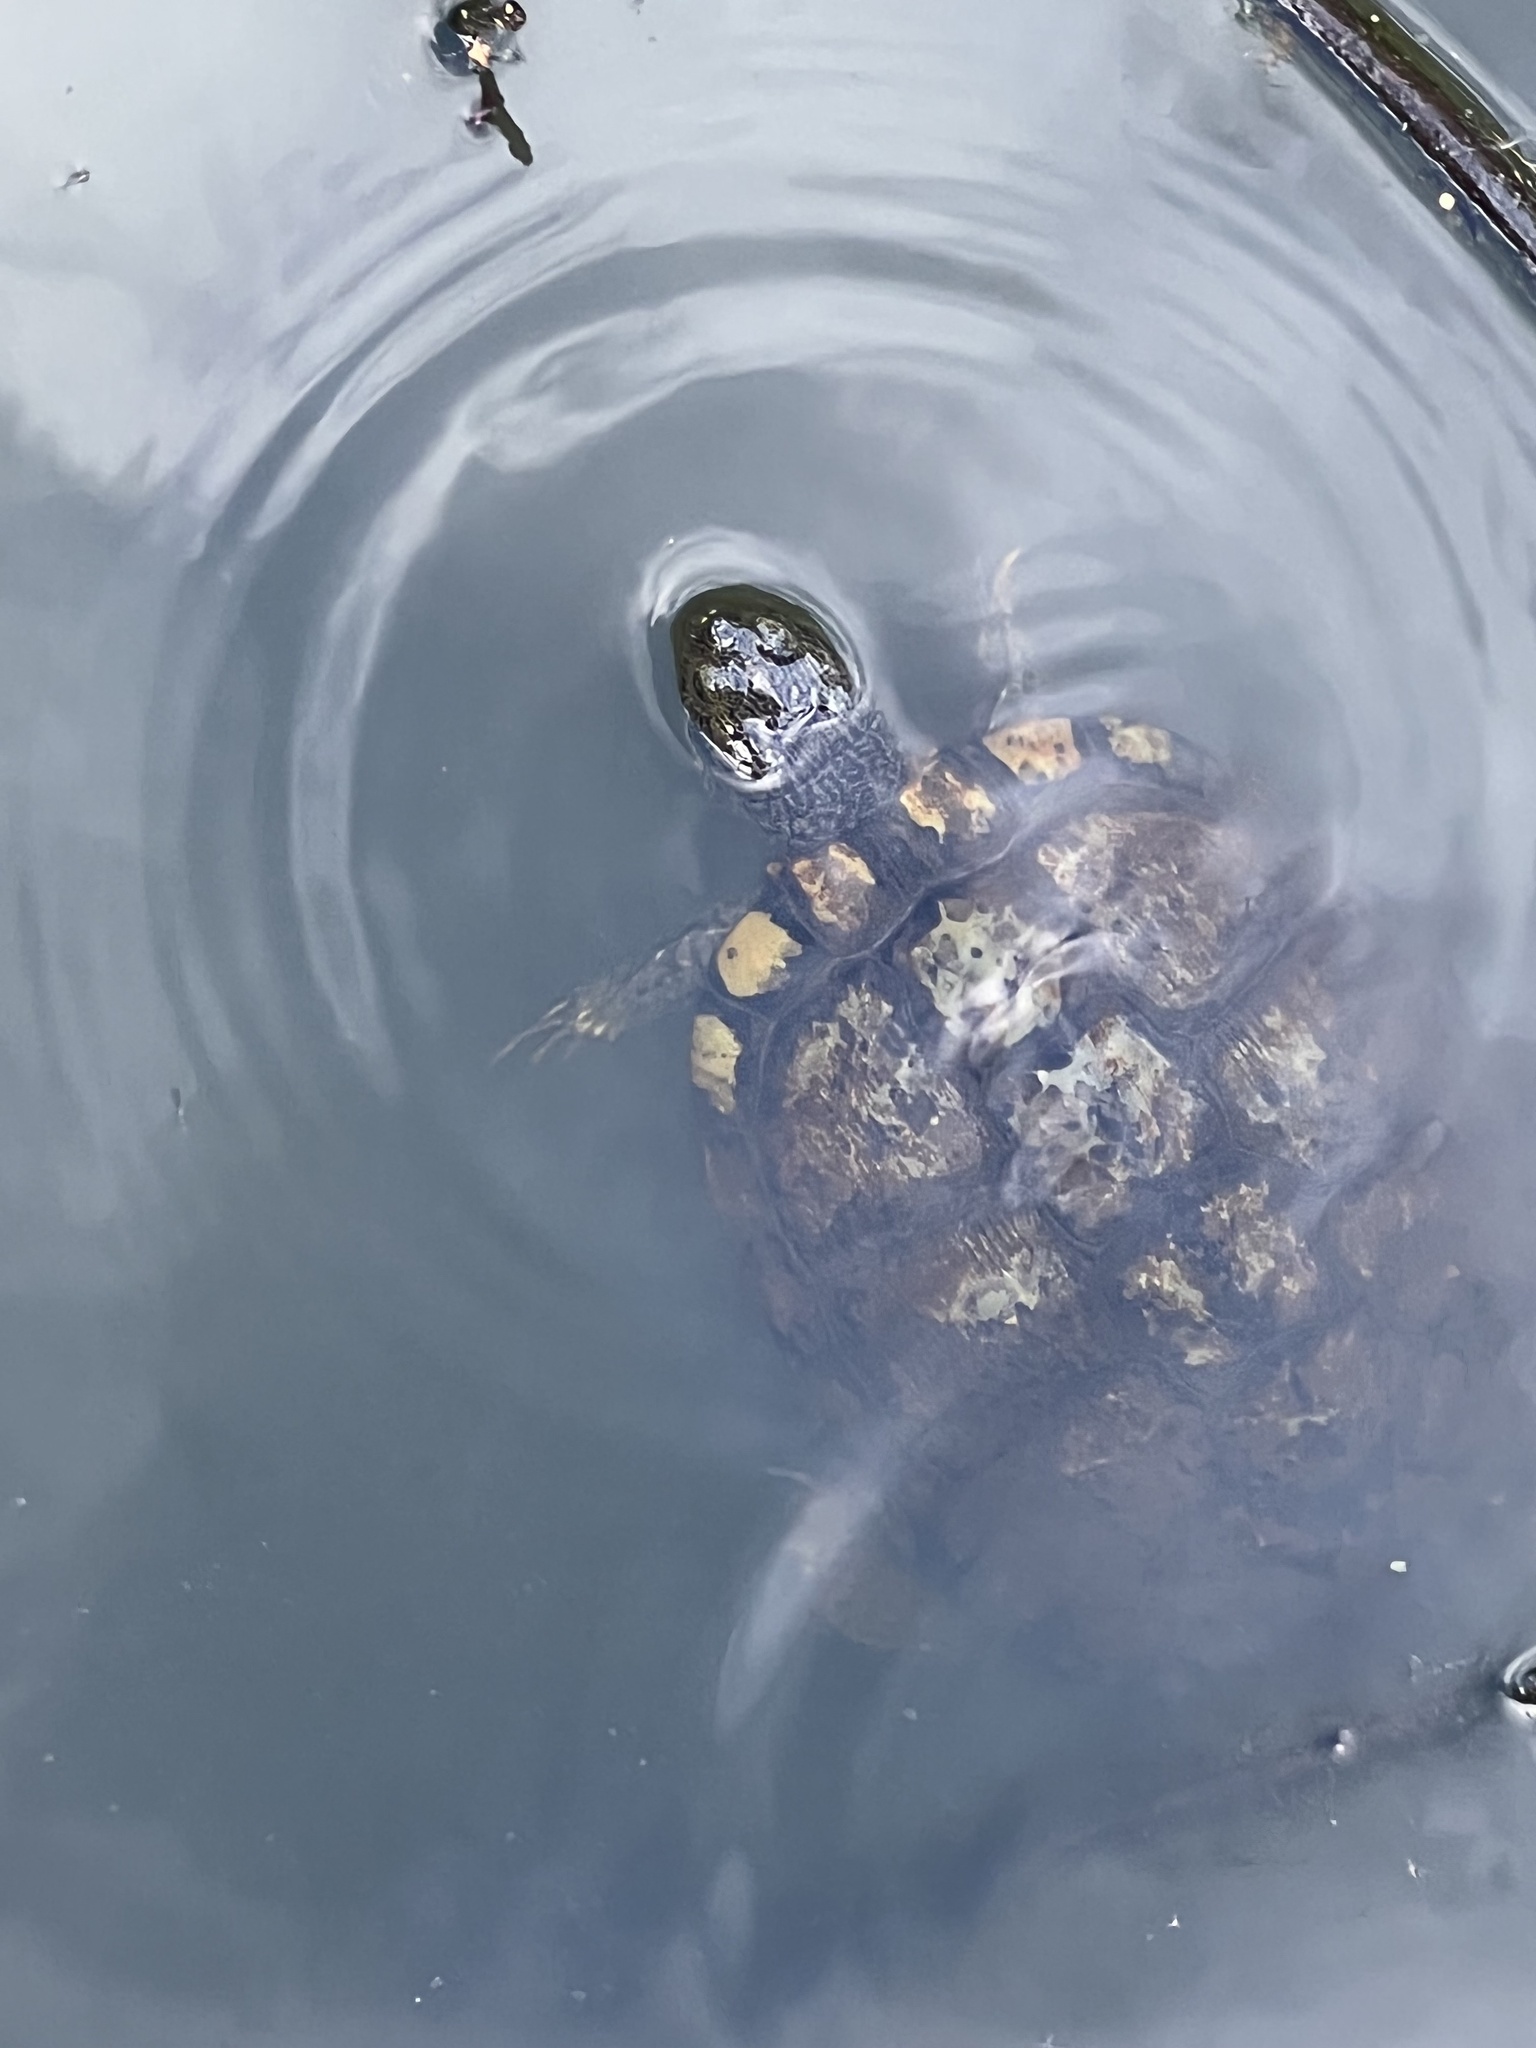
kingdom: Animalia
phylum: Chordata
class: Testudines
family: Emydidae
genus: Trachemys
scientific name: Trachemys scripta
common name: Slider
